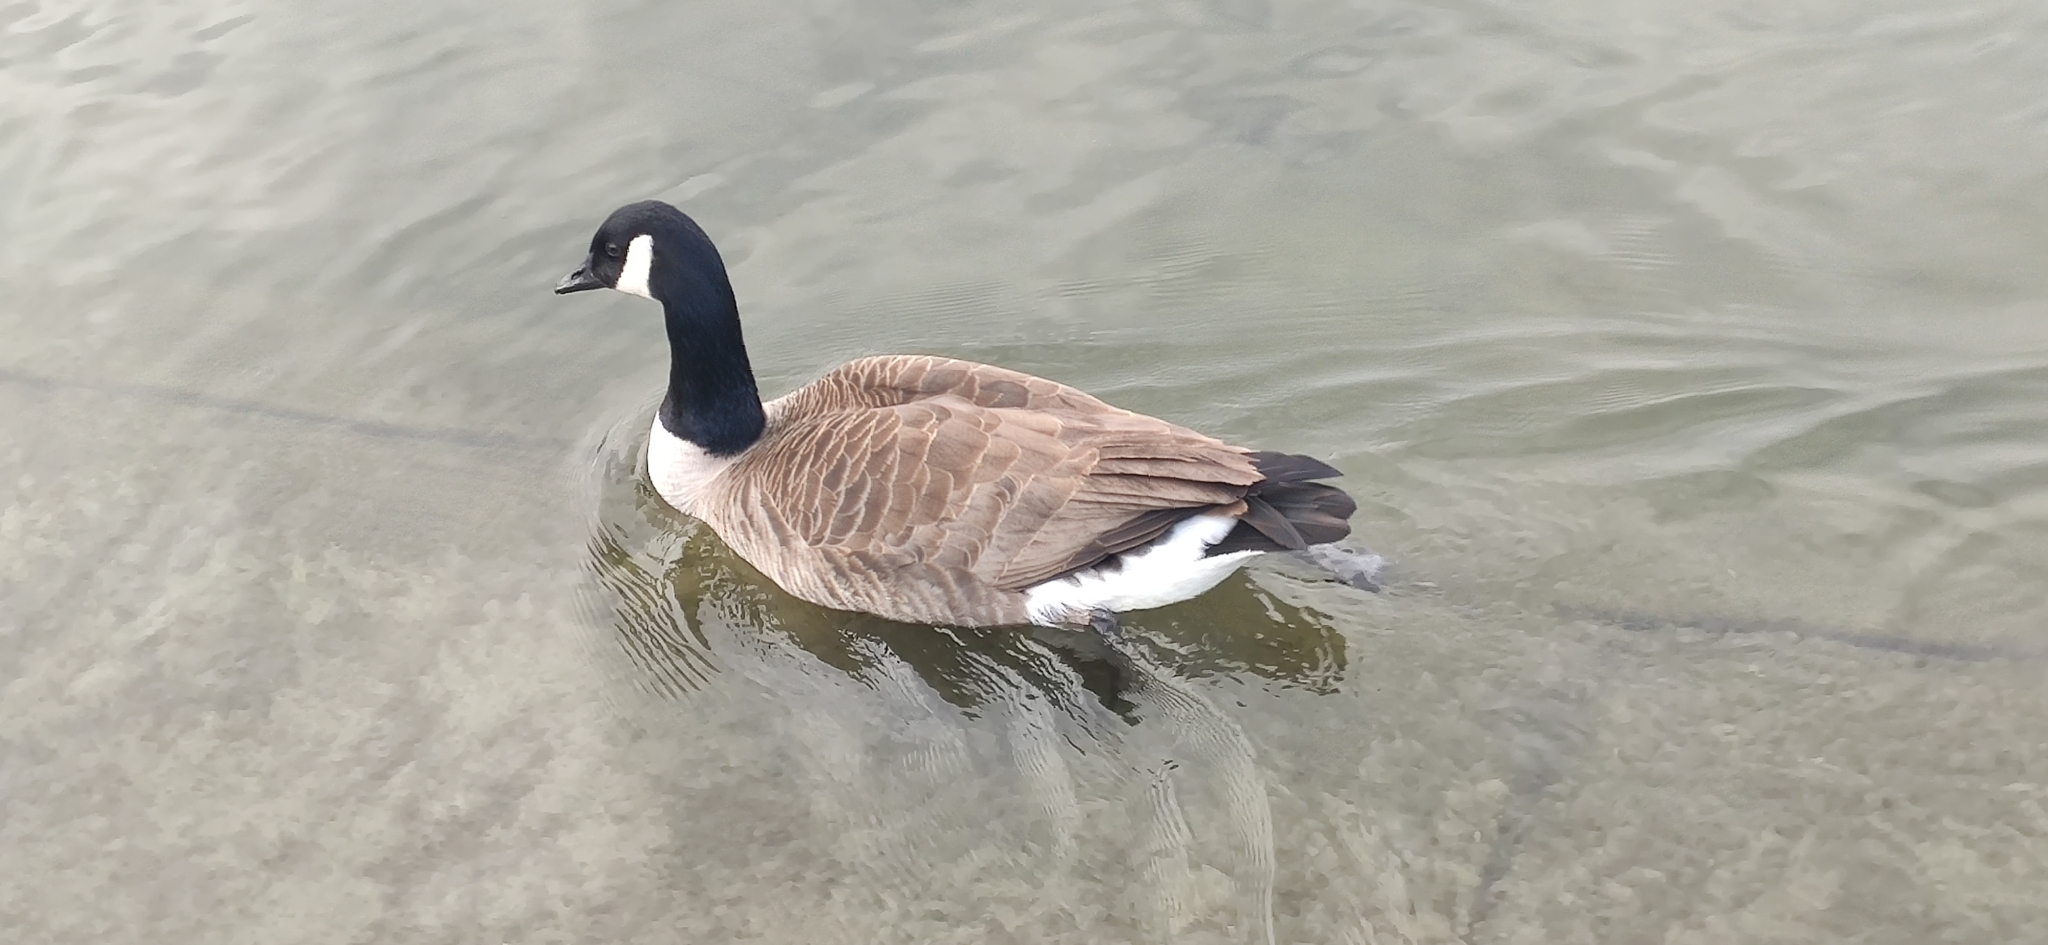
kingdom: Animalia
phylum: Chordata
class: Aves
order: Anseriformes
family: Anatidae
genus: Branta
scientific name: Branta canadensis
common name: Canada goose
